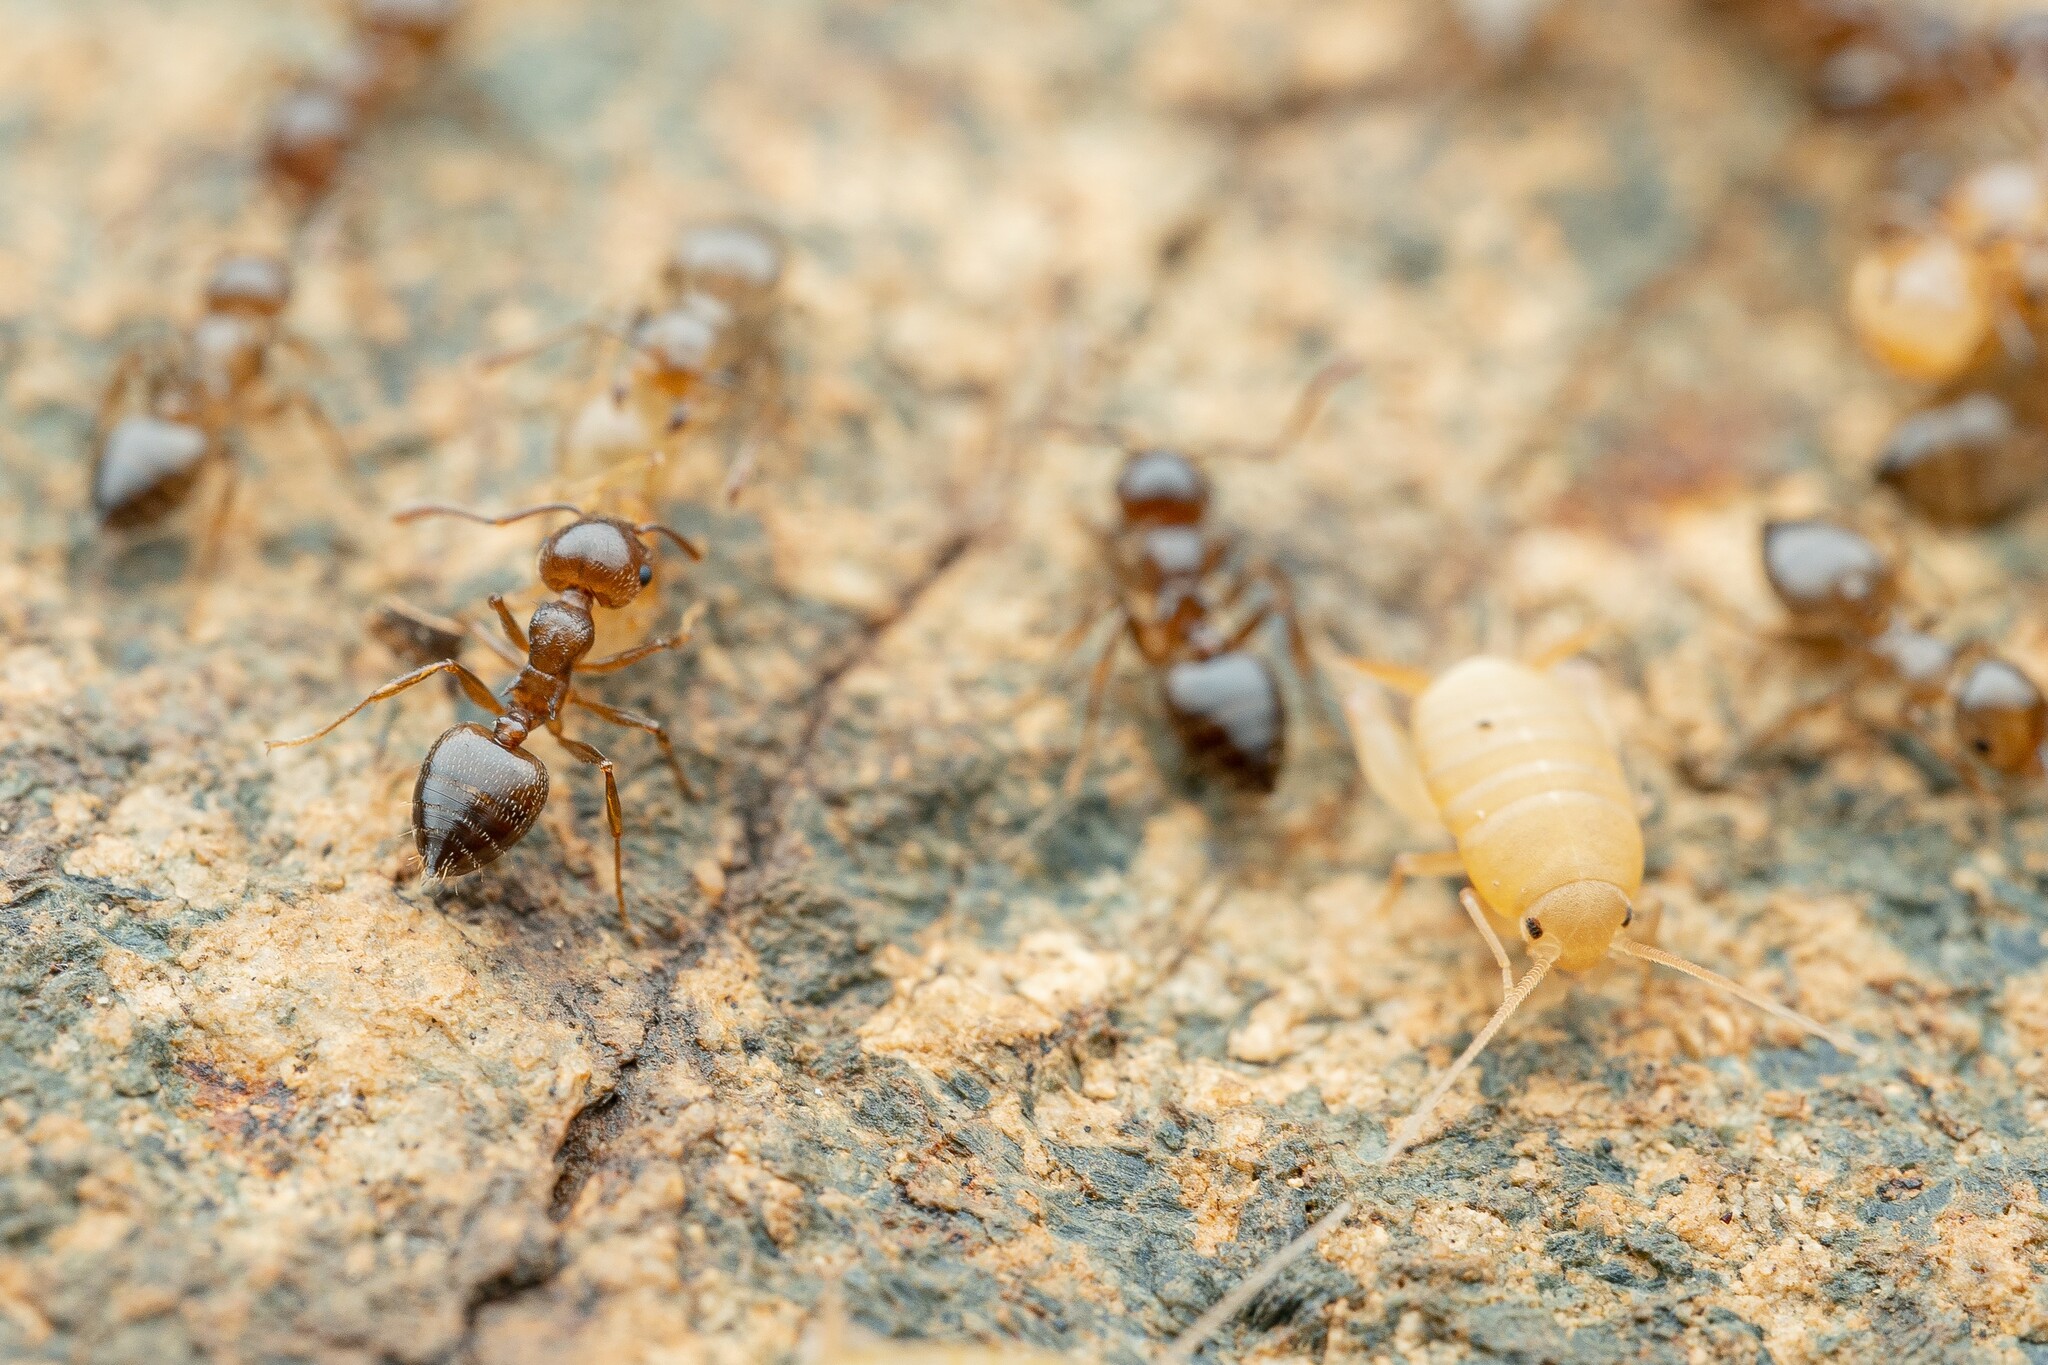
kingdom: Animalia
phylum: Arthropoda
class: Insecta
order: Orthoptera
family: Myrmecophilidae
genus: Myrmecophilus
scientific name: Myrmecophilus
